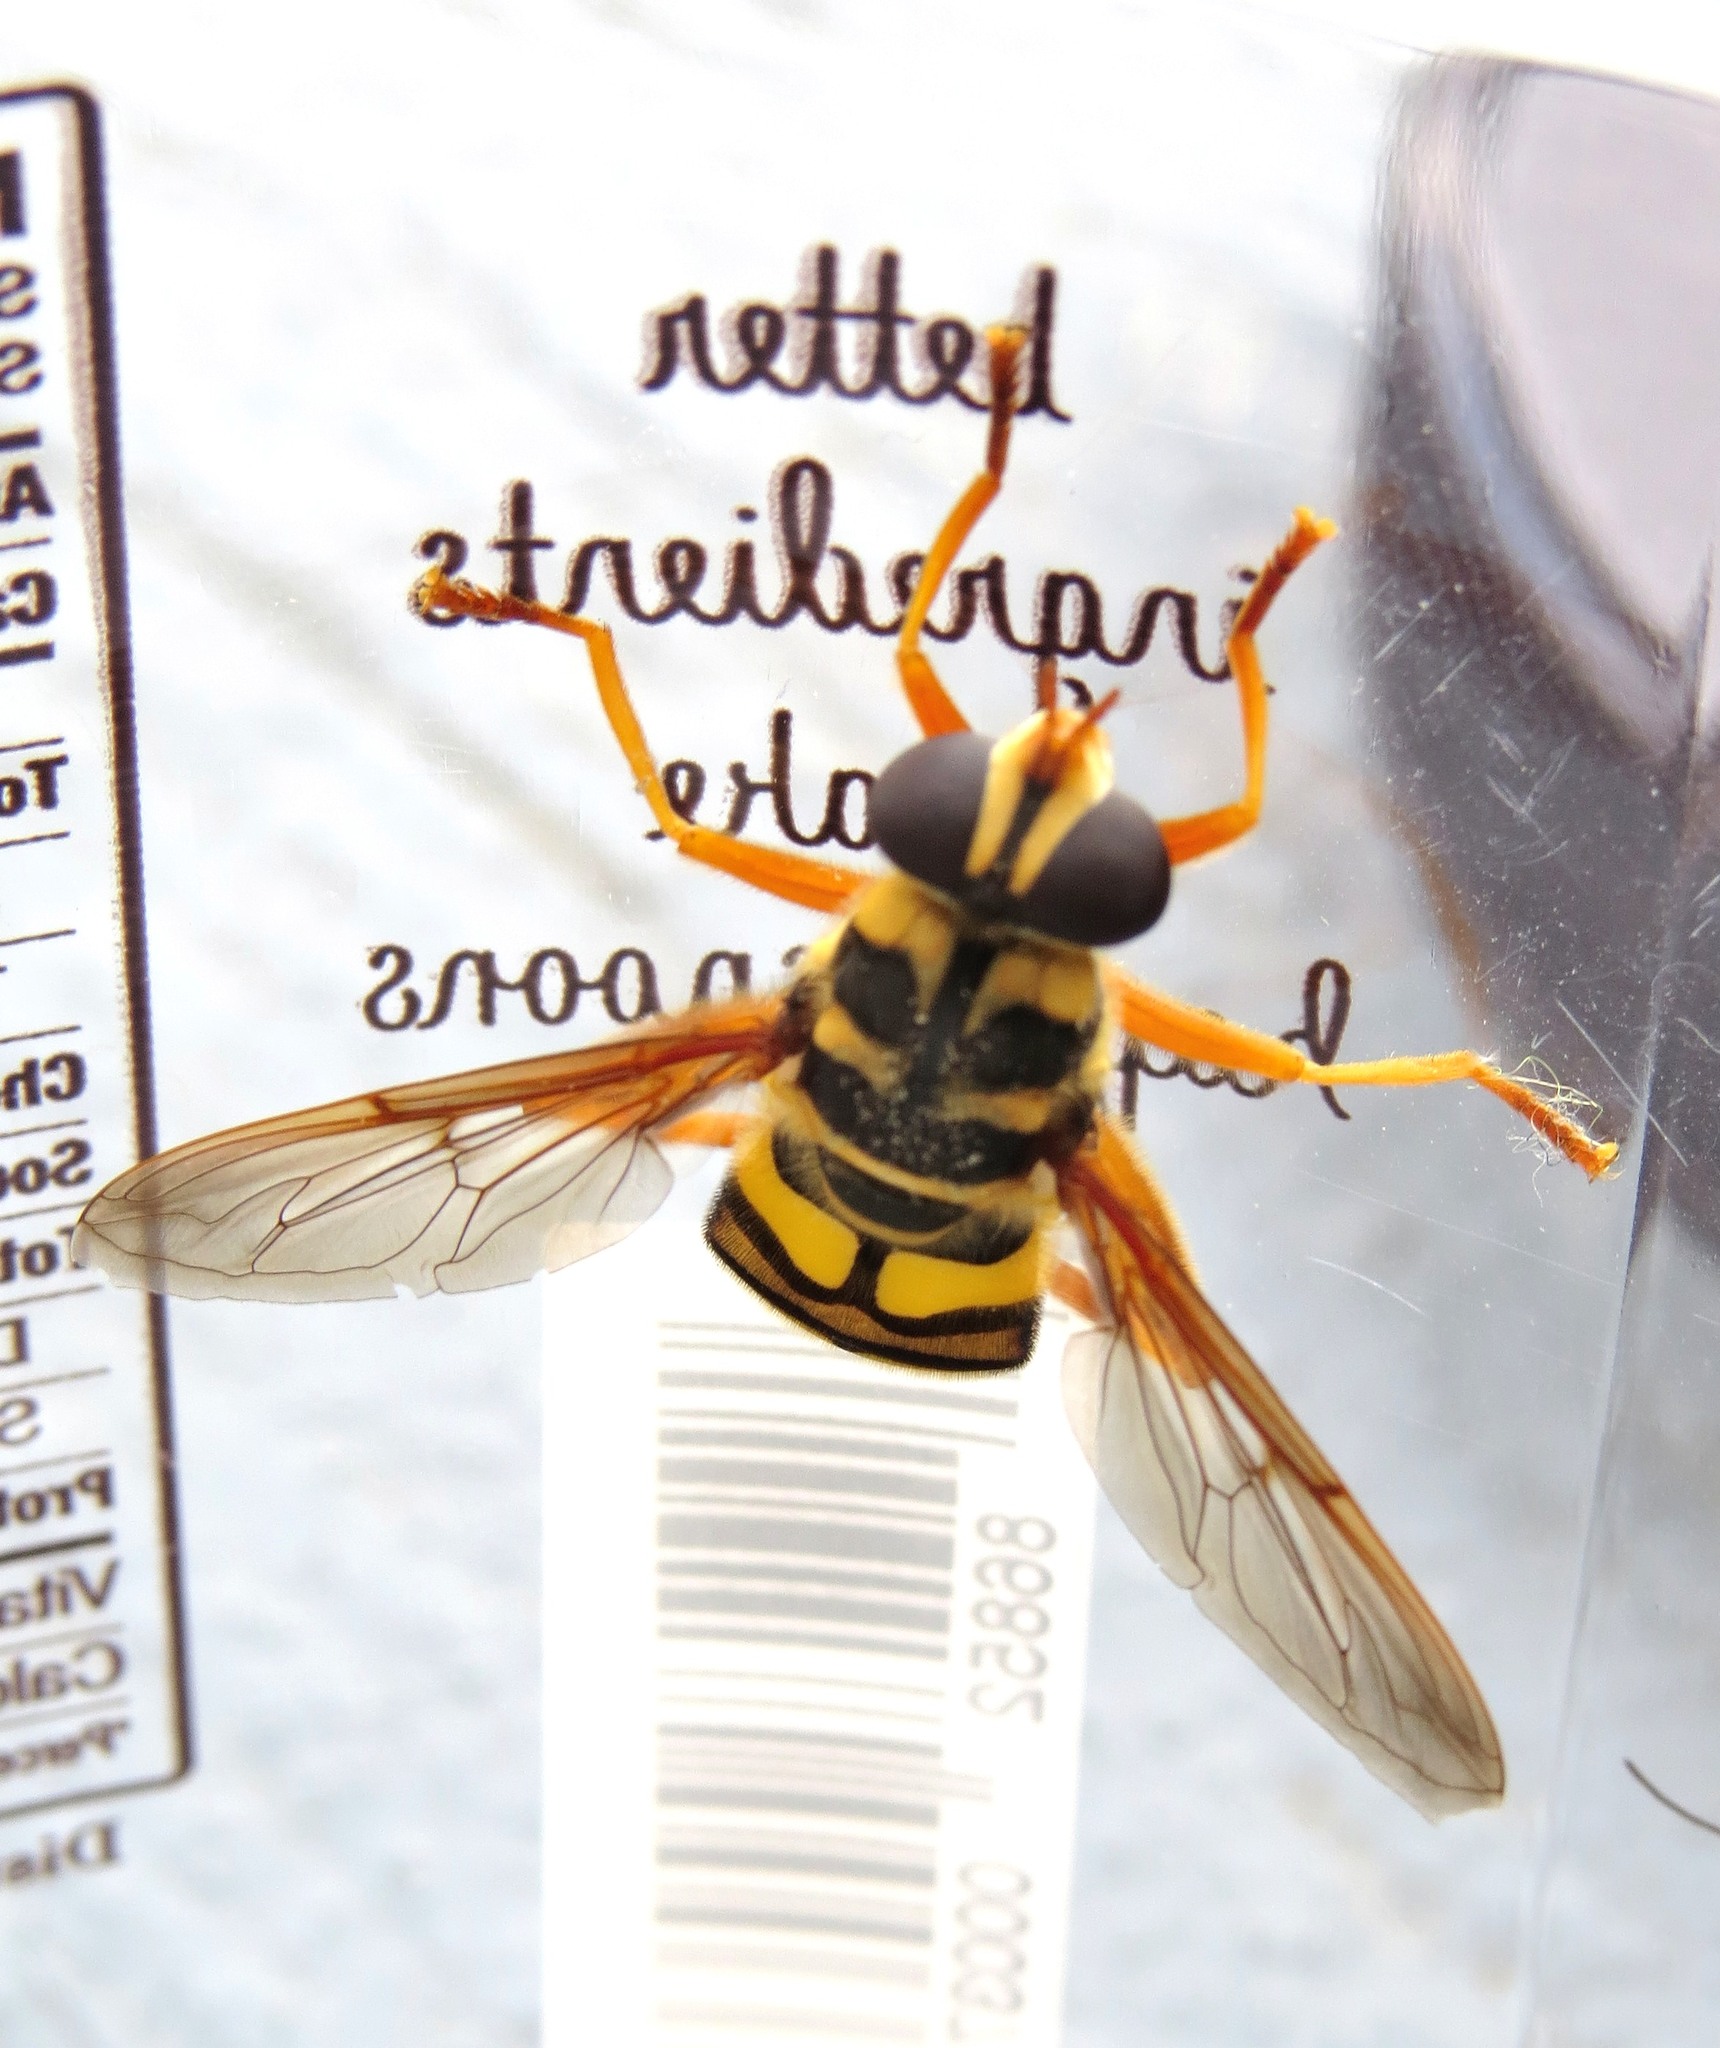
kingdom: Animalia
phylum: Arthropoda
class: Insecta
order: Diptera
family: Syrphidae
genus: Milesia
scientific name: Milesia virginiensis
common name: Virginia giant
